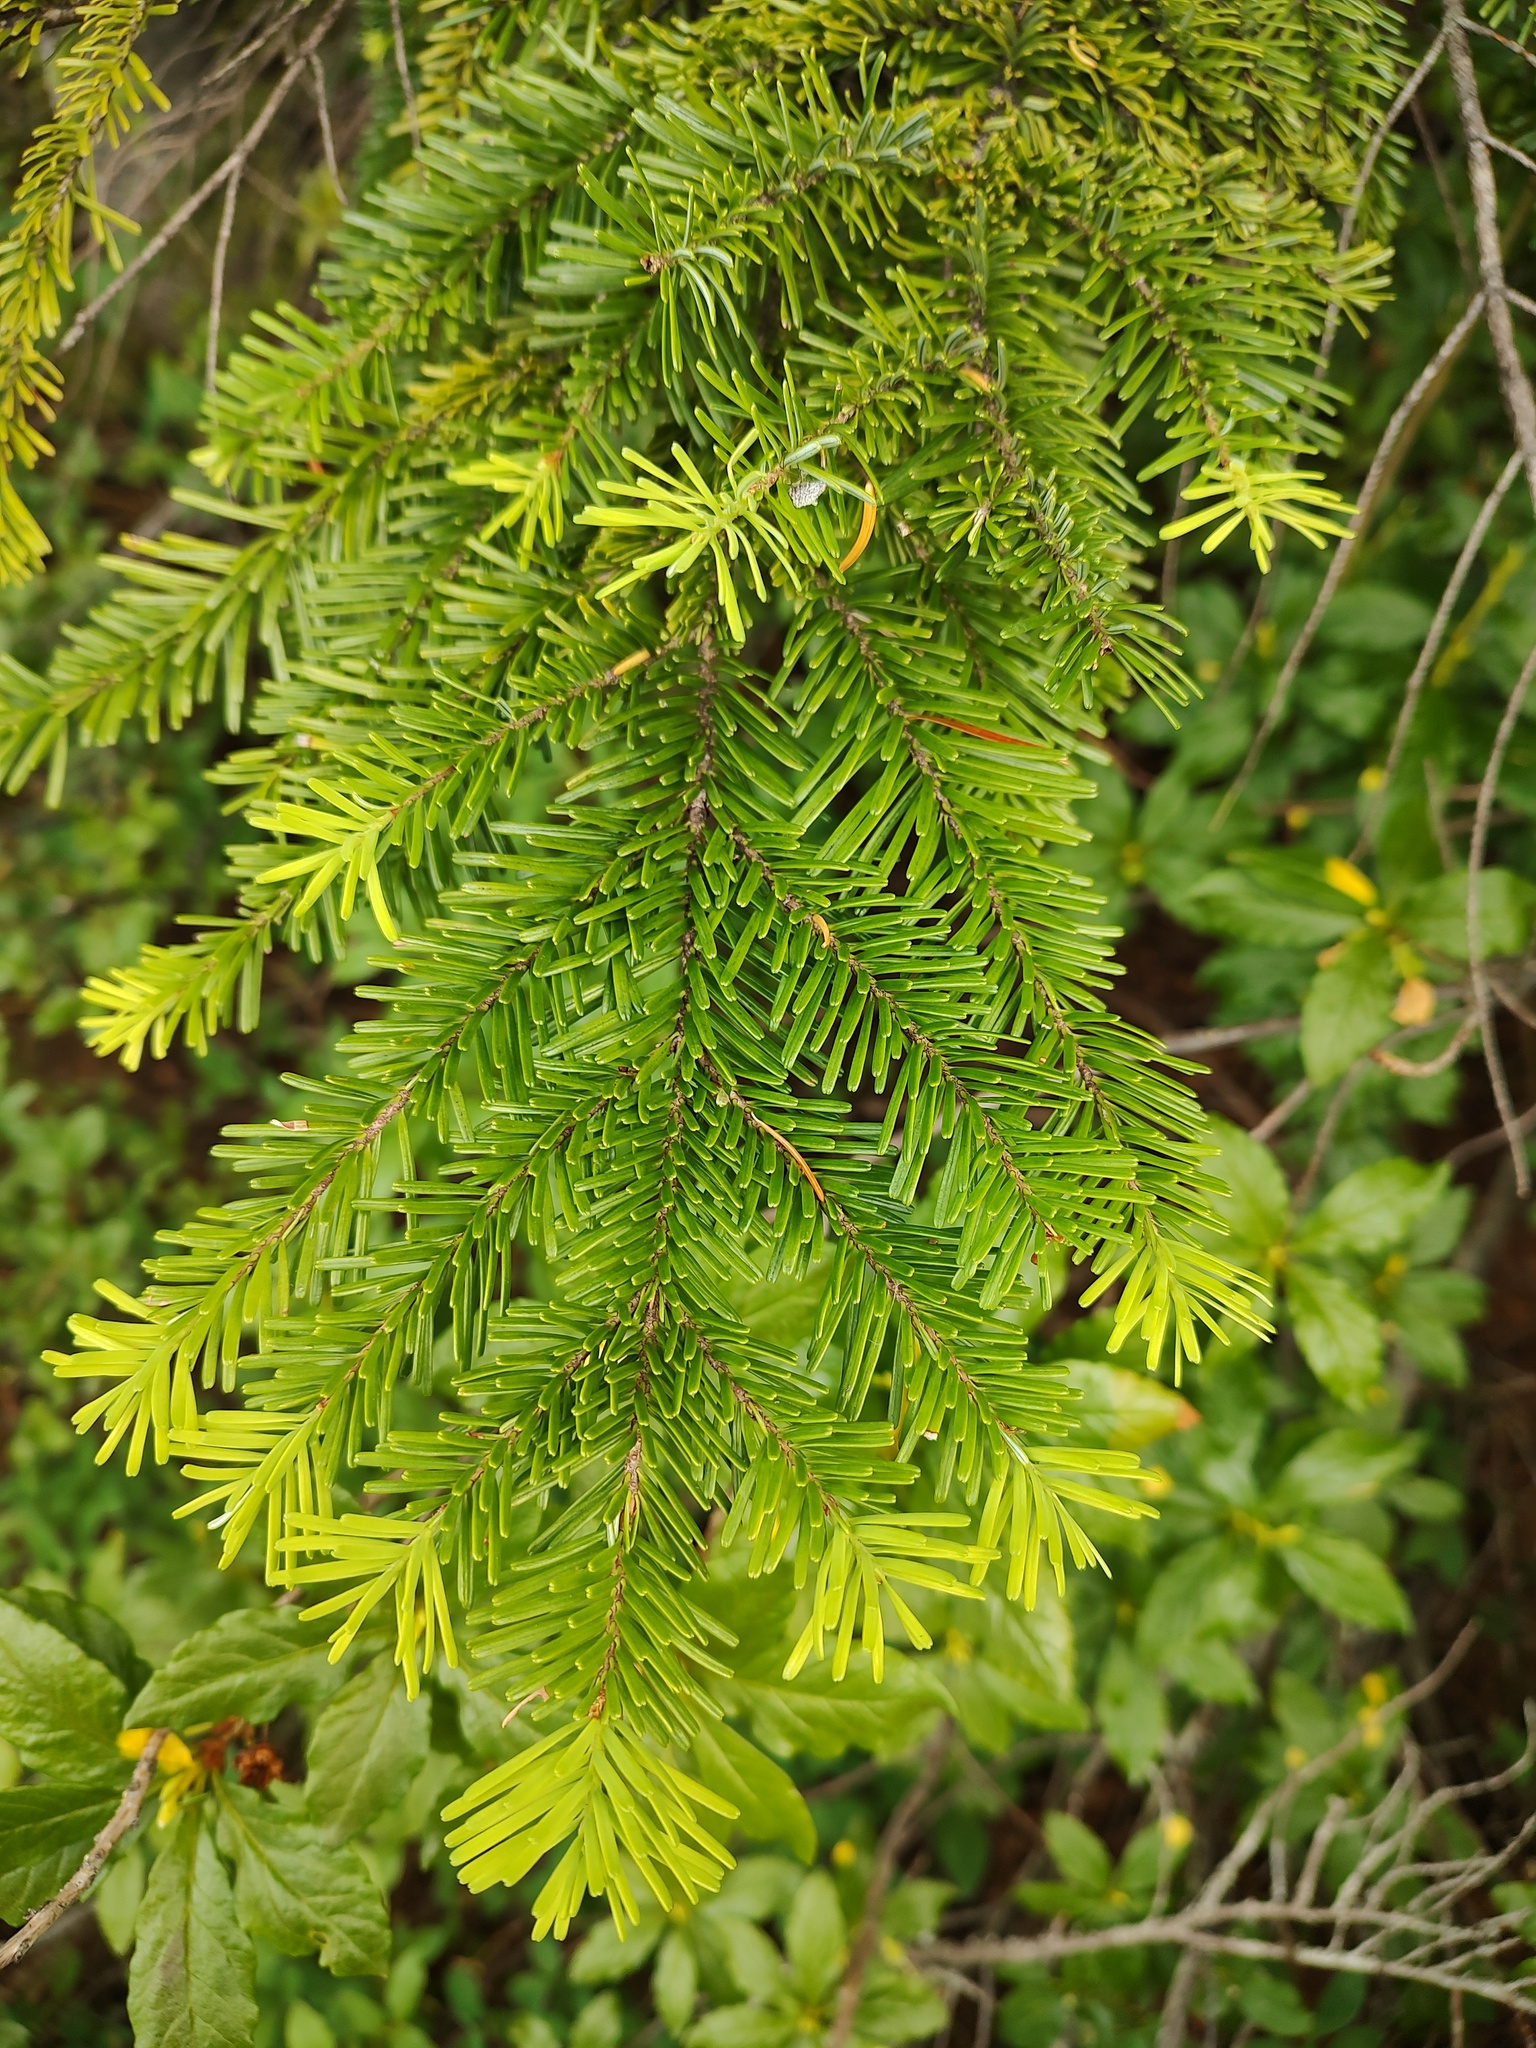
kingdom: Plantae
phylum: Tracheophyta
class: Pinopsida
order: Pinales
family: Pinaceae
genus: Abies
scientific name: Abies amabilis
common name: Pacific silver fir
